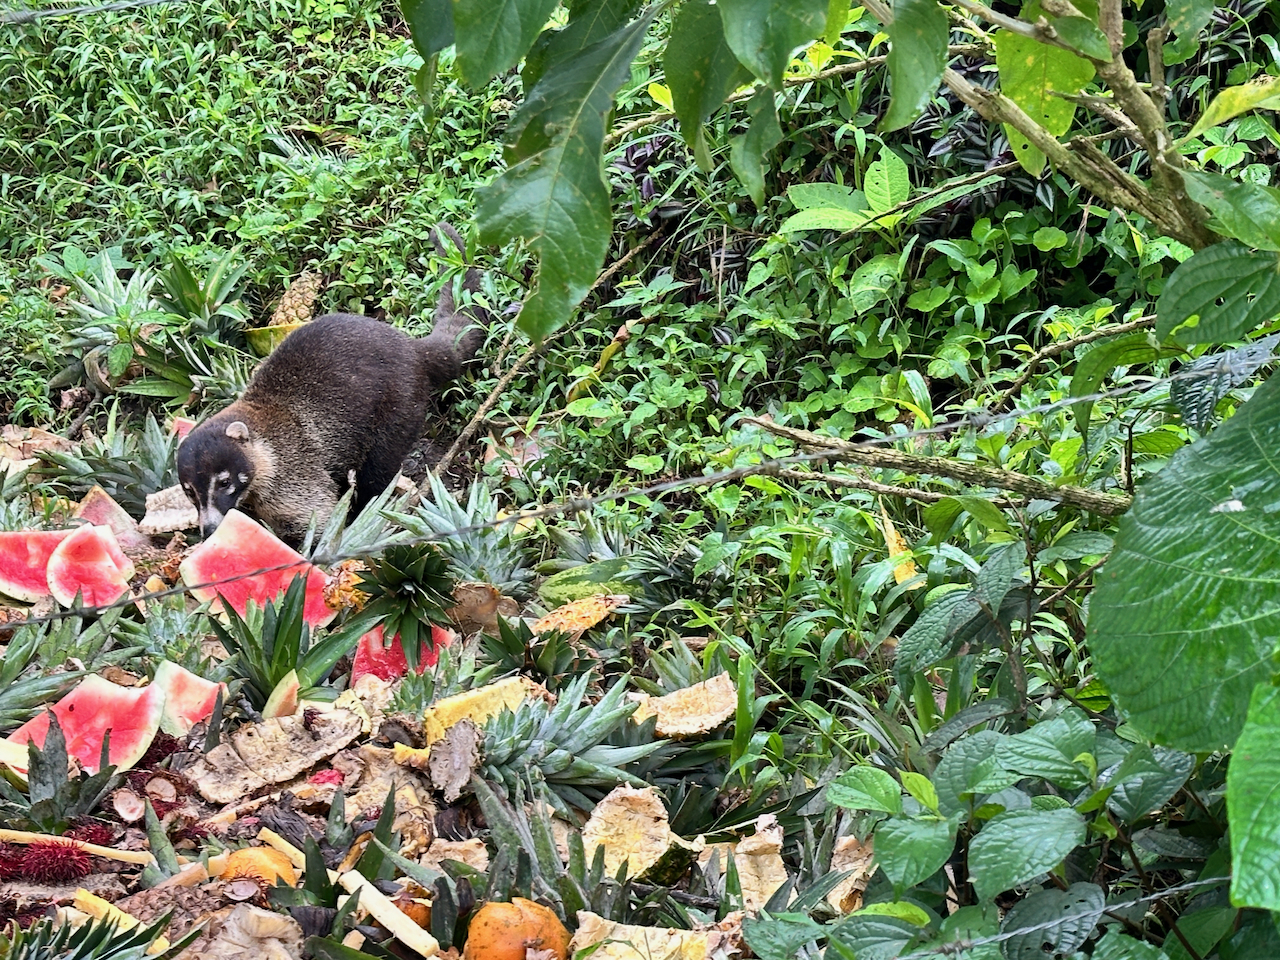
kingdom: Animalia
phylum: Chordata
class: Mammalia
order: Carnivora
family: Procyonidae
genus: Nasua
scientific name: Nasua narica
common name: White-nosed coati
